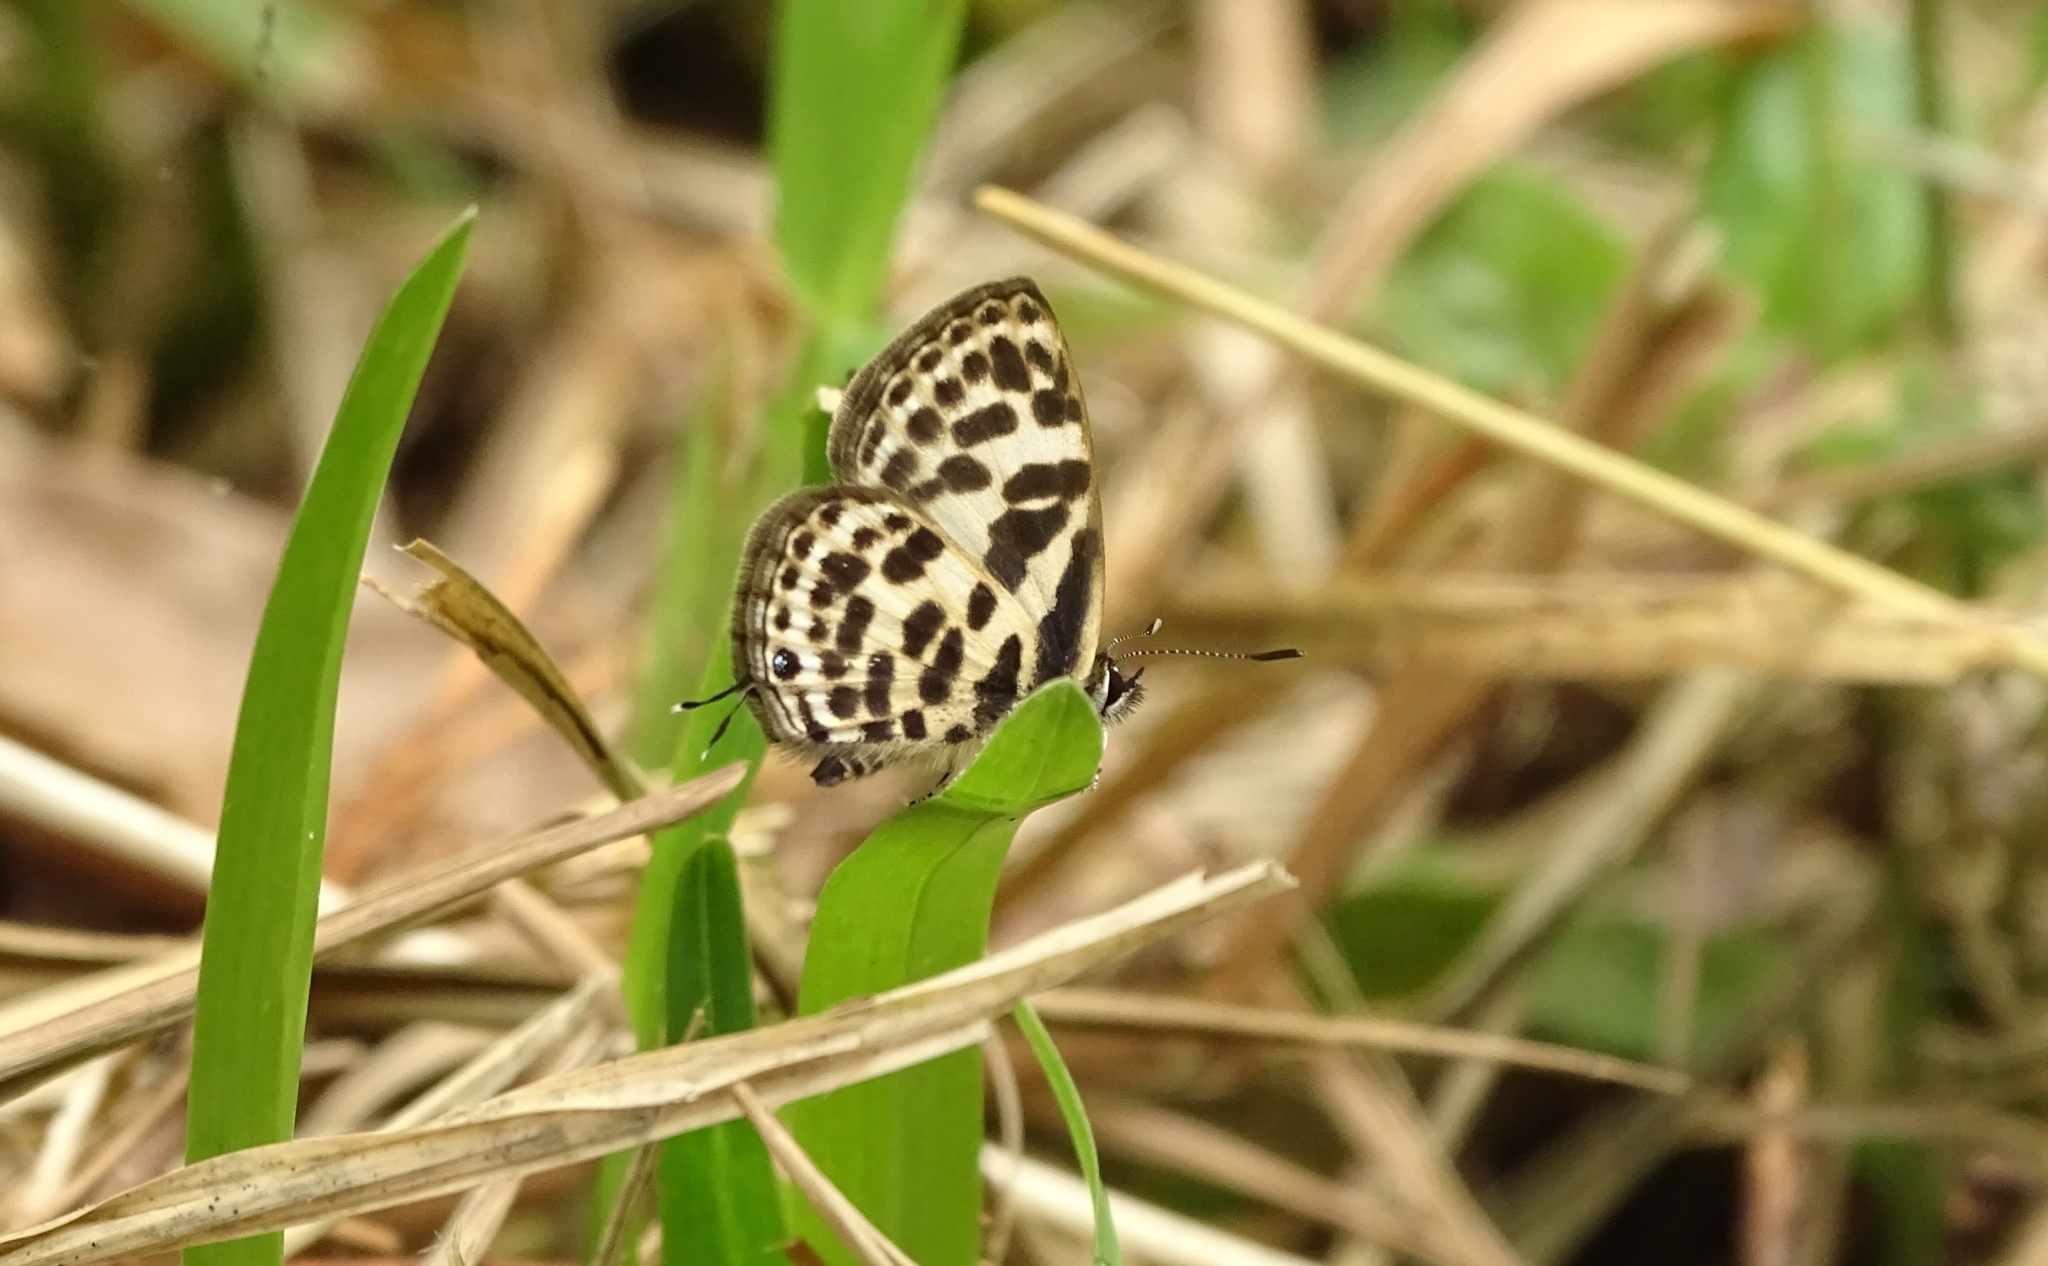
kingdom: Animalia
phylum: Arthropoda
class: Insecta
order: Lepidoptera
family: Lycaenidae
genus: Tarucus
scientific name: Tarucus
